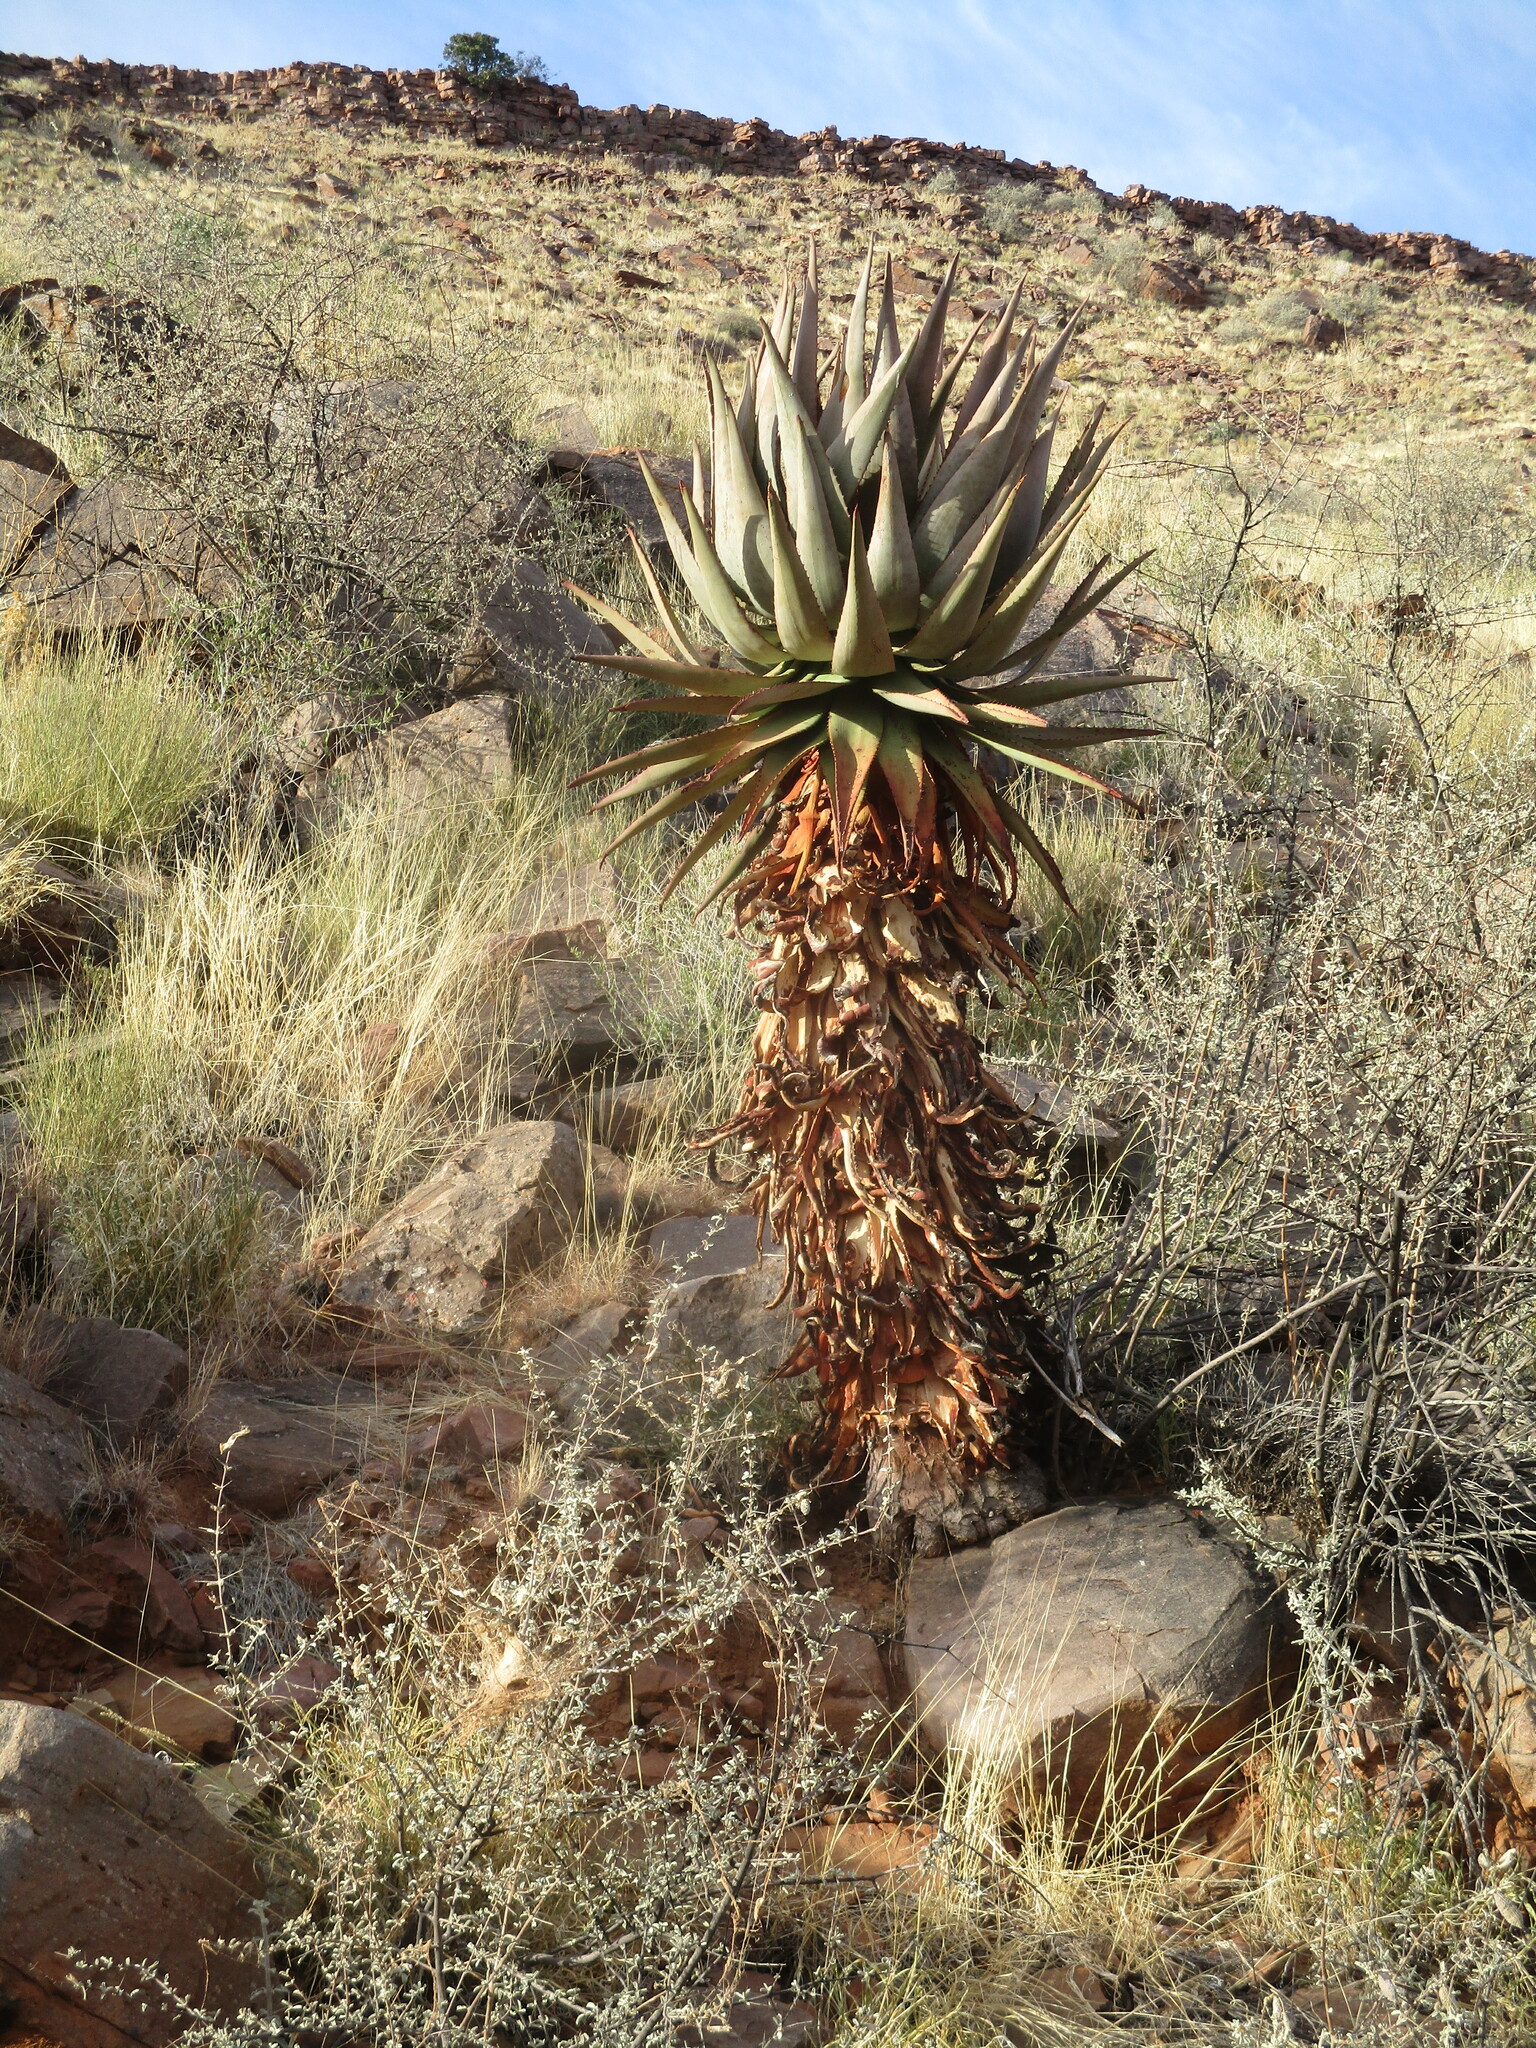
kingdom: Plantae
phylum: Tracheophyta
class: Liliopsida
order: Asparagales
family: Asphodelaceae
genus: Aloe
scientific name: Aloe littoralis
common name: Luanda tree aloe
